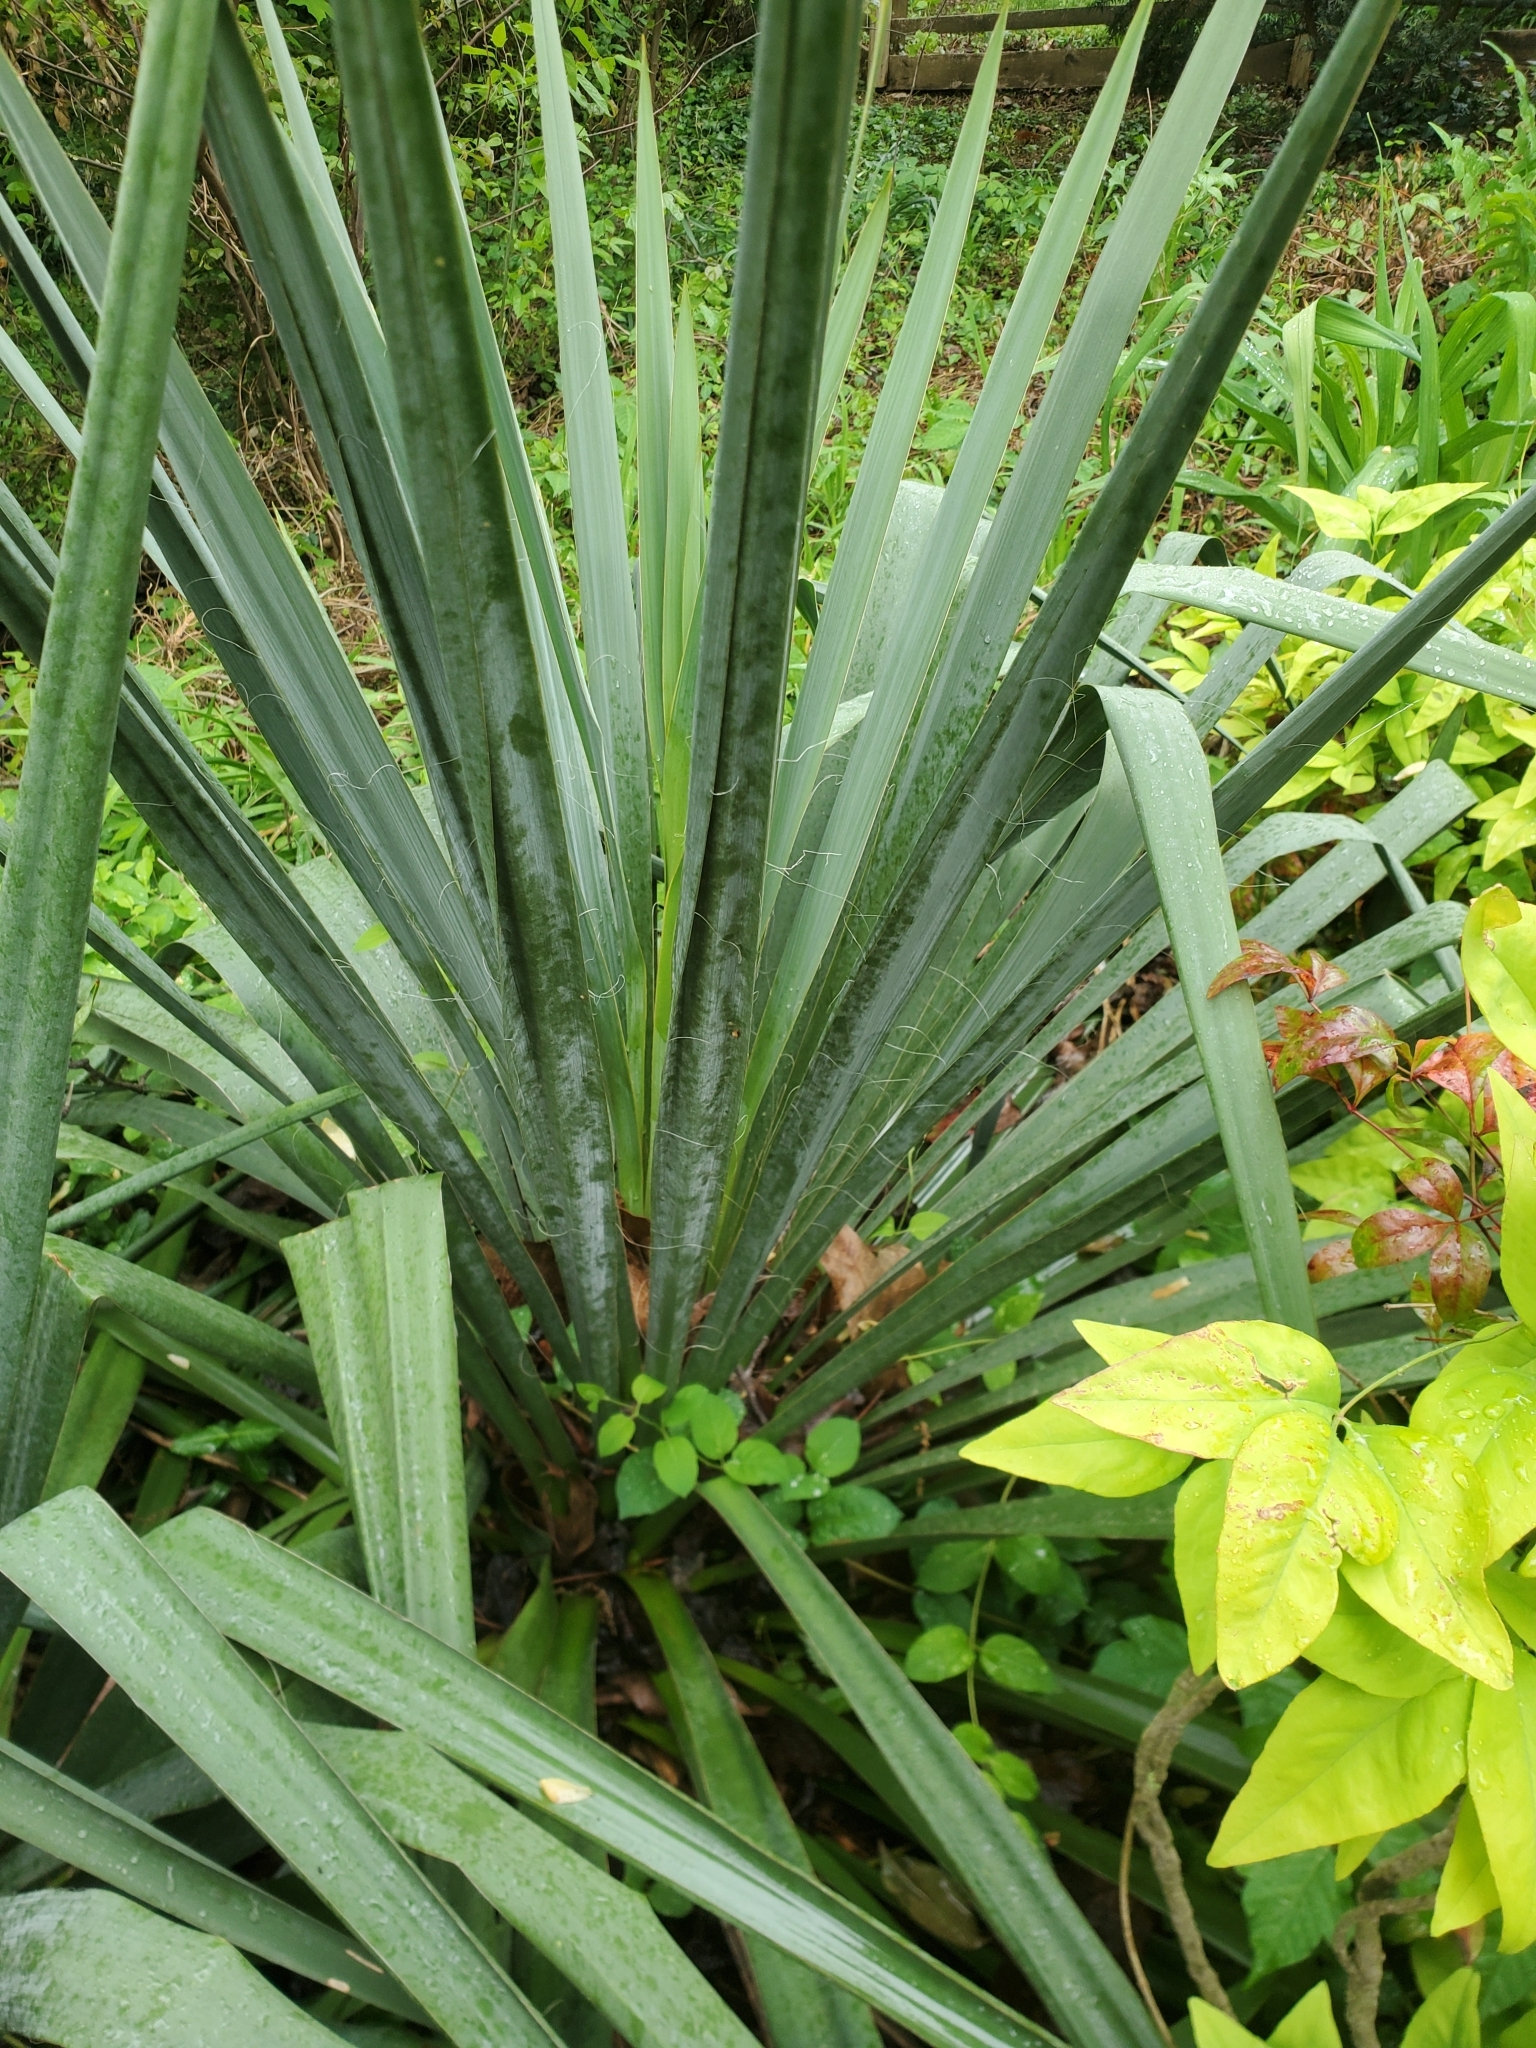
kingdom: Plantae
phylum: Tracheophyta
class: Liliopsida
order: Asparagales
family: Asparagaceae
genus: Yucca
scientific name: Yucca filamentosa
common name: Adam's-needle
